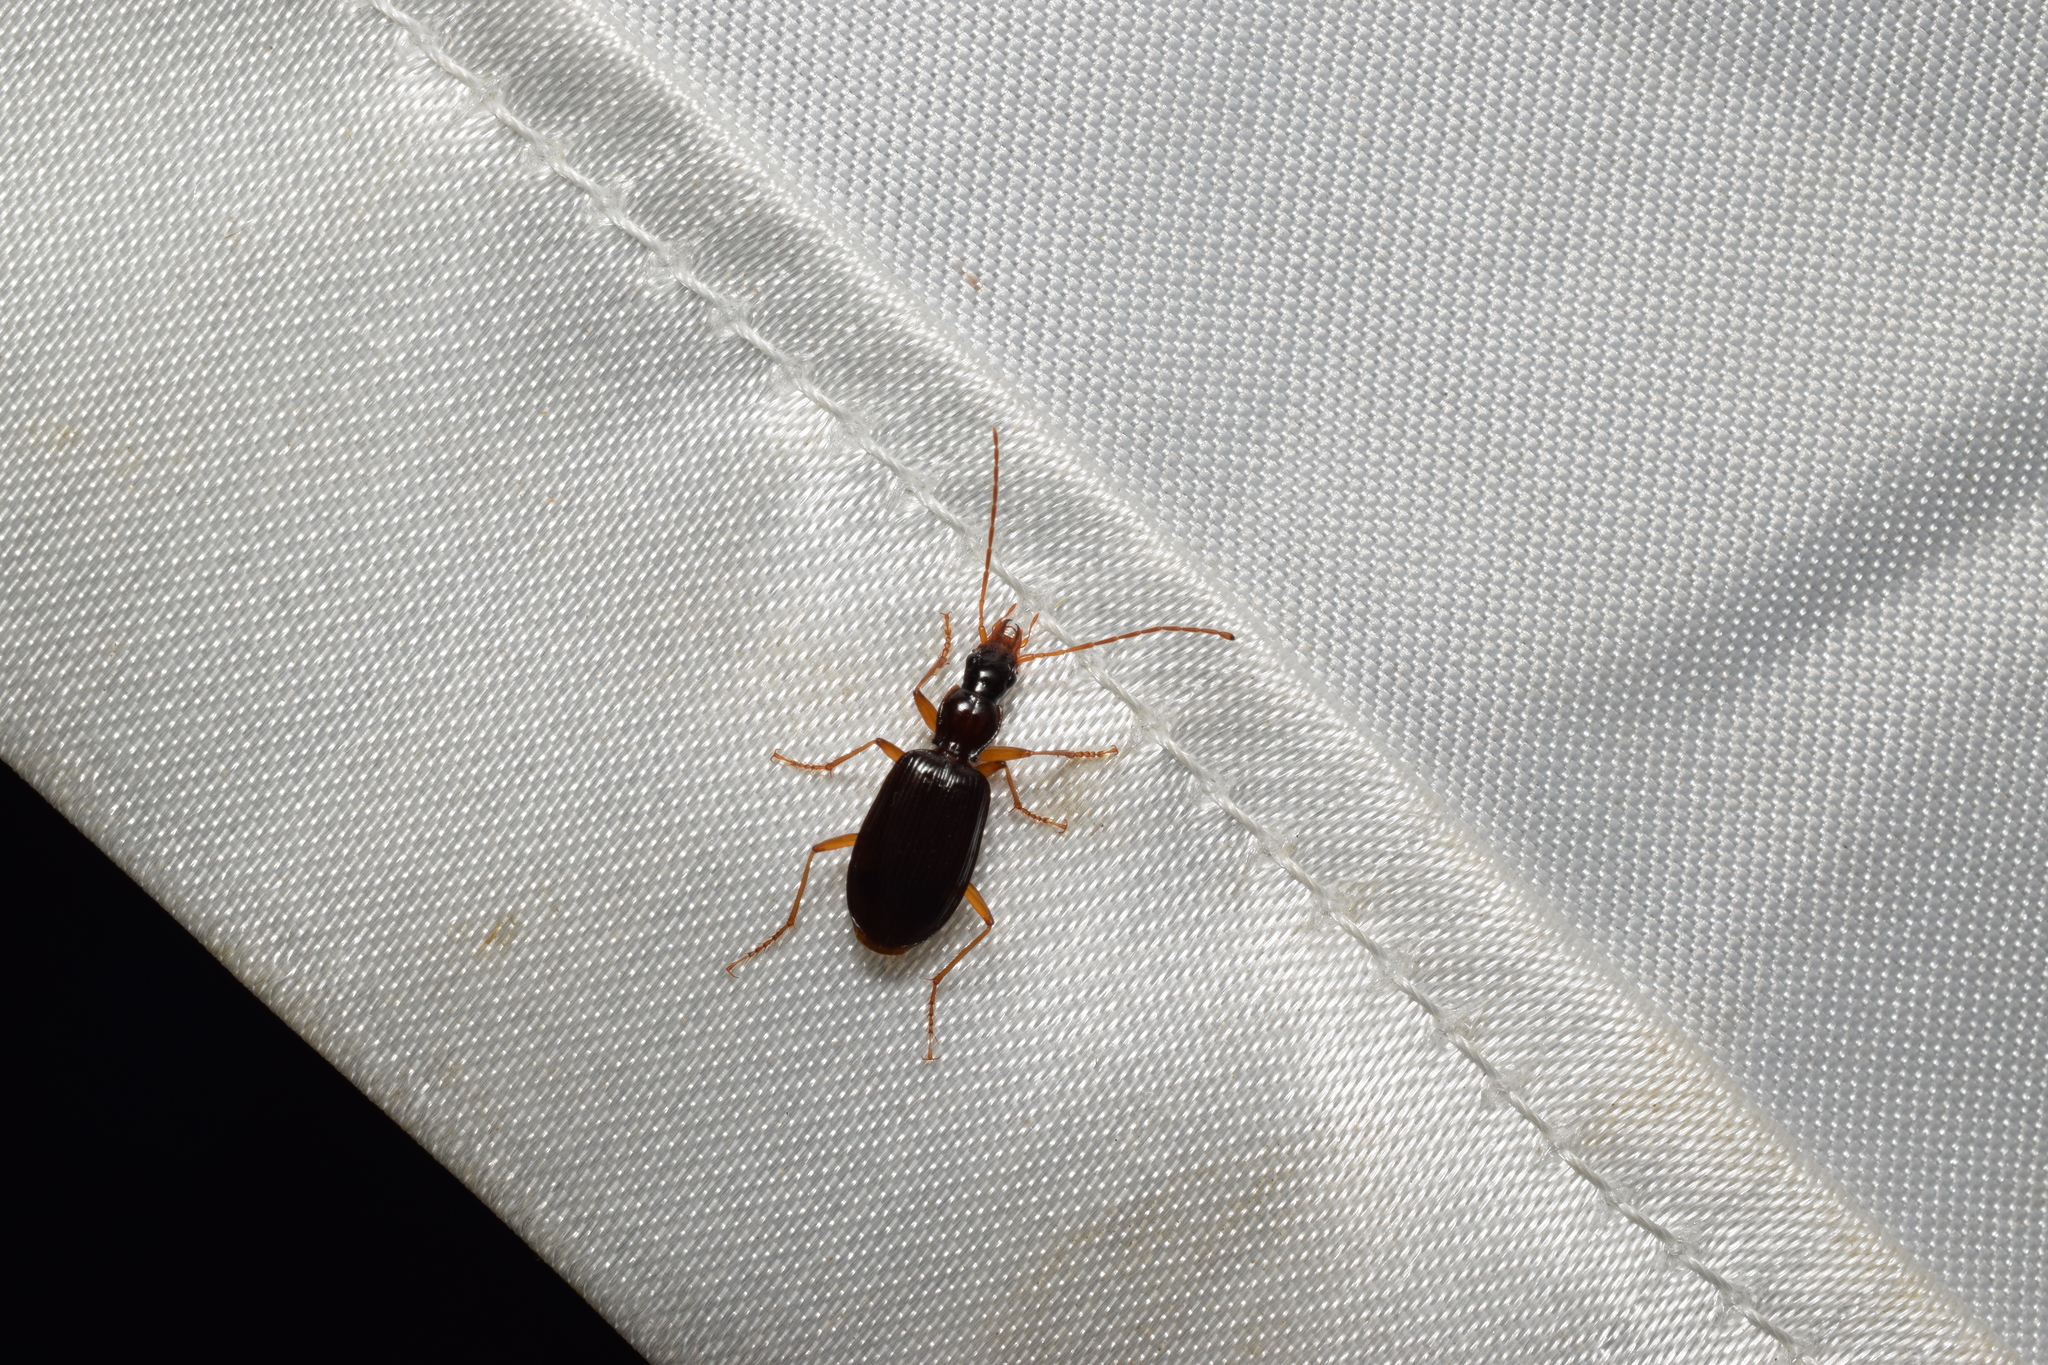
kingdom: Animalia
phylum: Arthropoda
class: Insecta
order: Coleoptera
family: Carabidae
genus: Anchomenus
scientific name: Anchomenus leucopus
